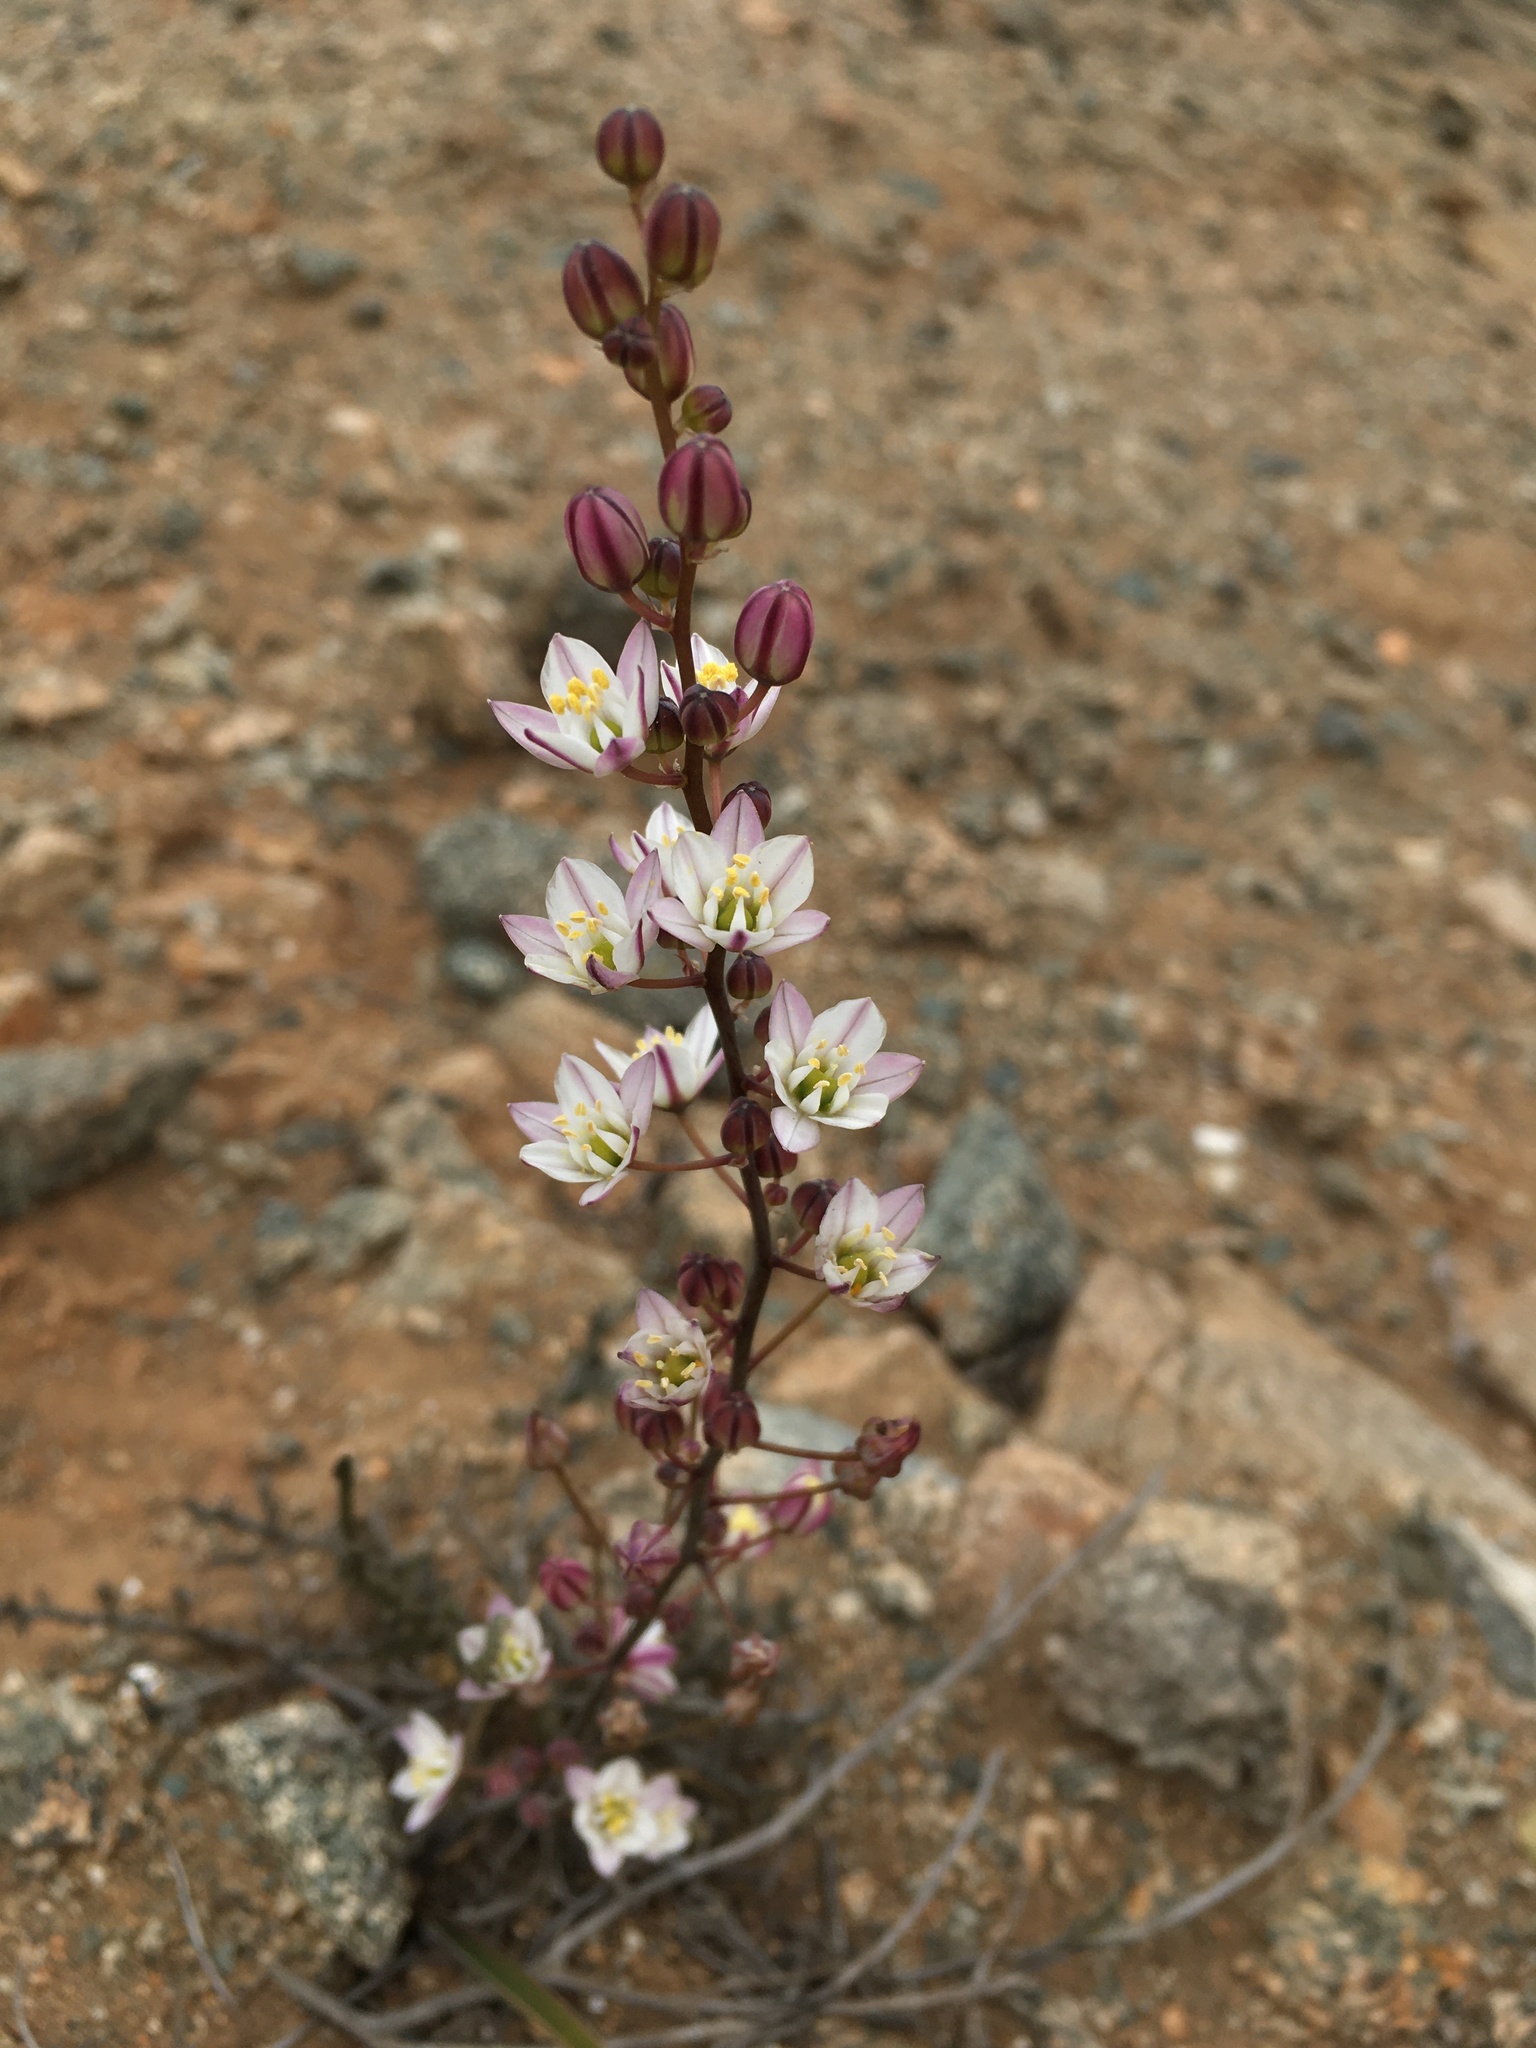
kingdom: Plantae
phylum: Tracheophyta
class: Liliopsida
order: Asparagales
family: Asparagaceae
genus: Oziroe
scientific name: Oziroe biflora
